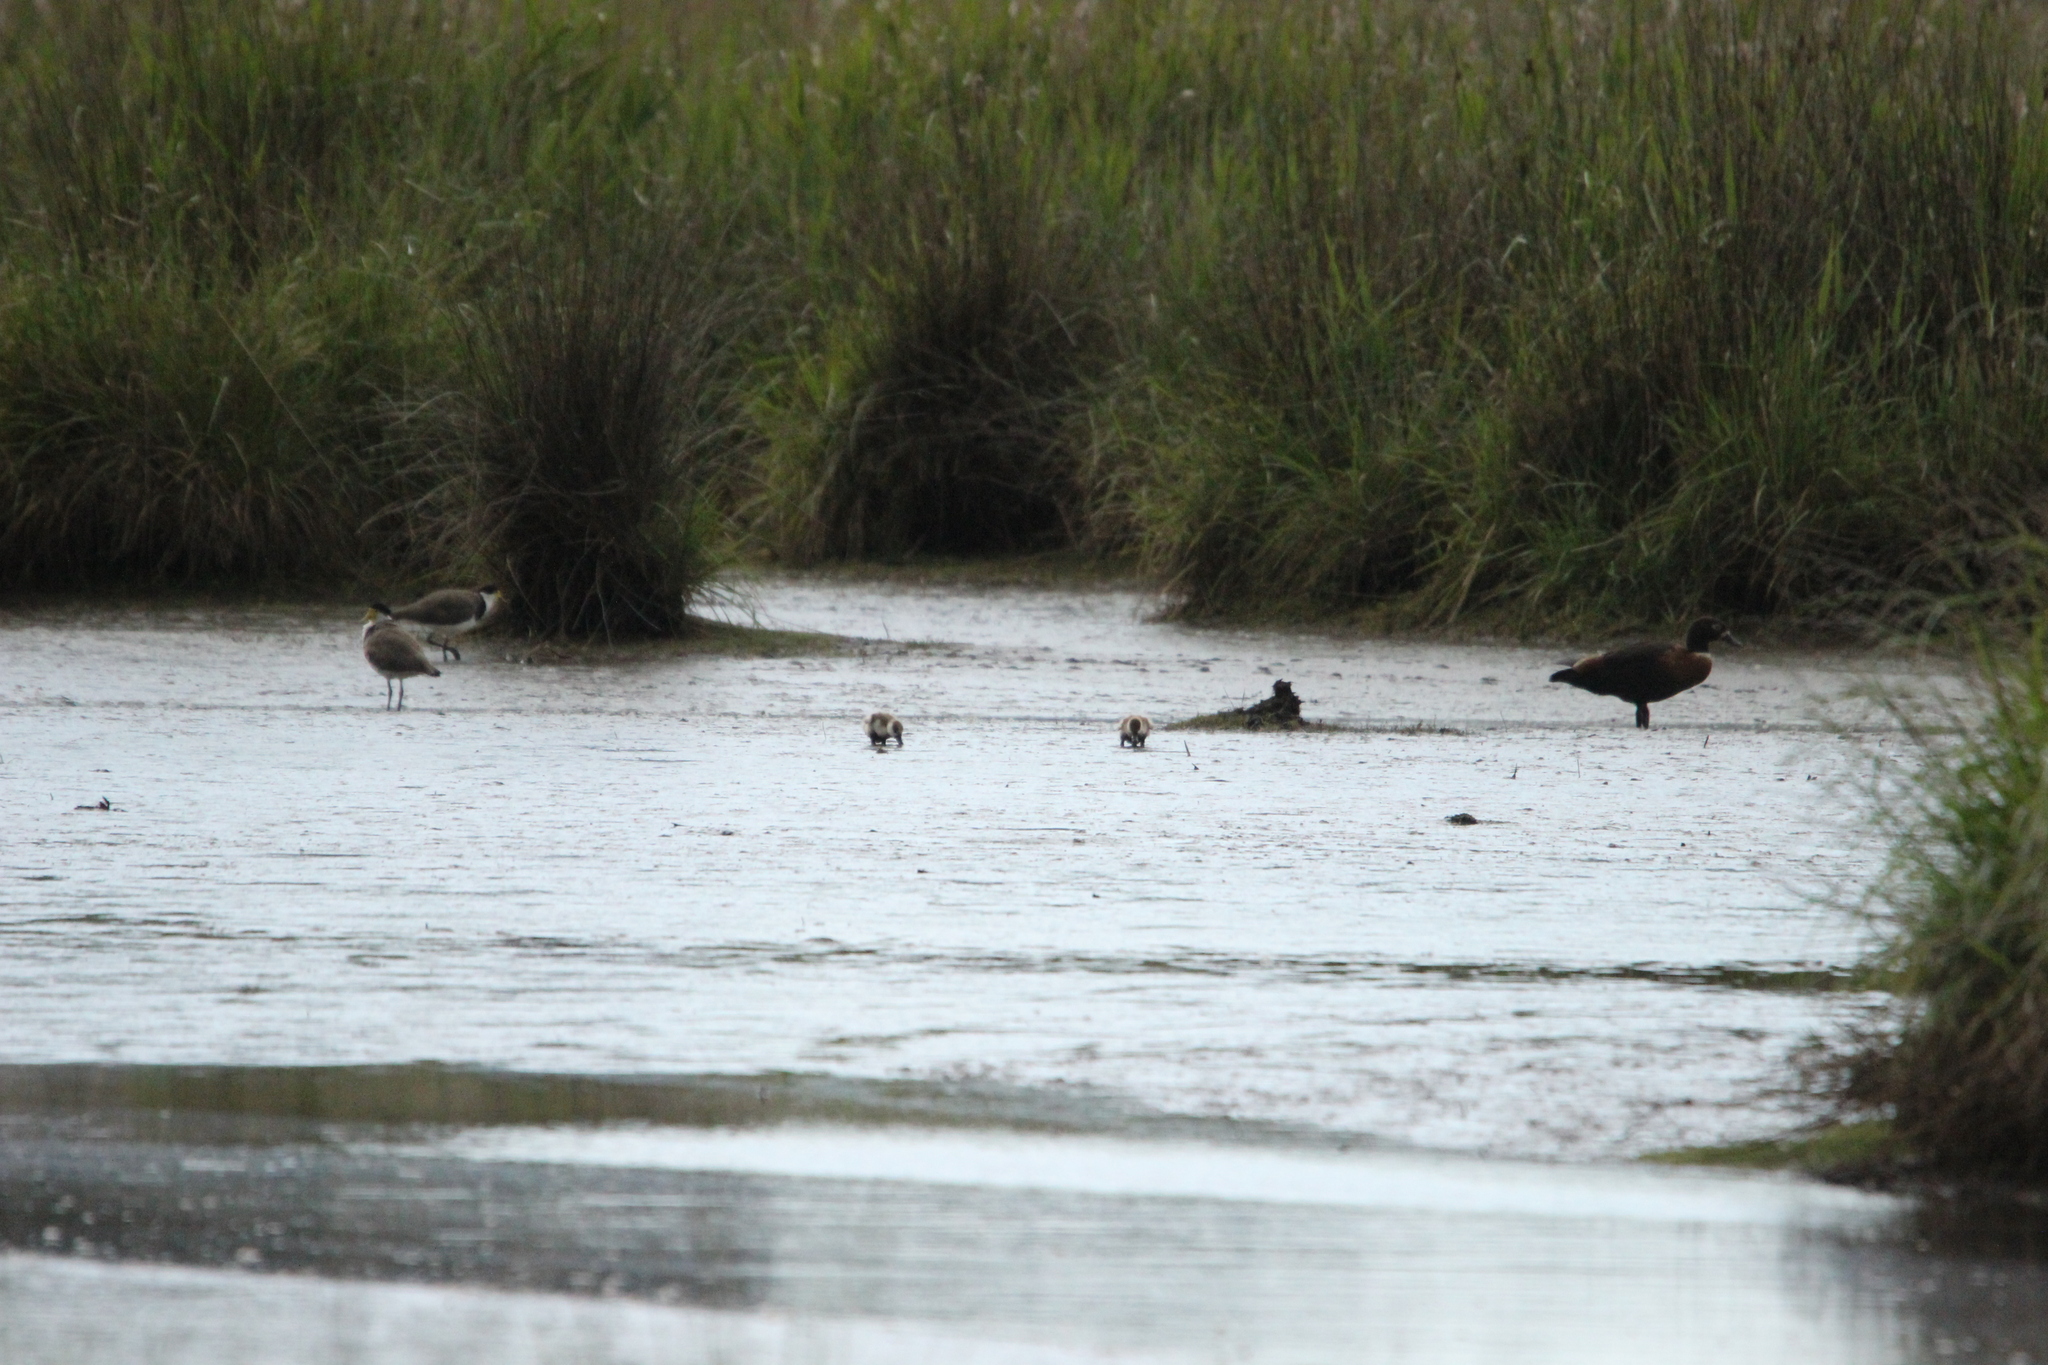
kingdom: Animalia
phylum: Chordata
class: Aves
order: Anseriformes
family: Anatidae
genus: Tadorna
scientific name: Tadorna tadornoides
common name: Australian shelduck
